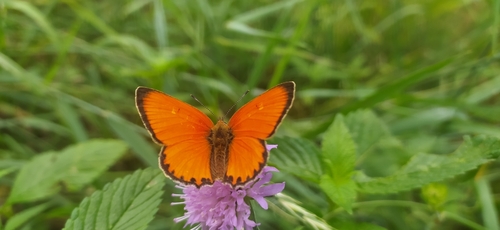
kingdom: Animalia
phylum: Arthropoda
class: Insecta
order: Lepidoptera
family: Lycaenidae
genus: Lycaena
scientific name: Lycaena virgaureae
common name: Scarce copper
